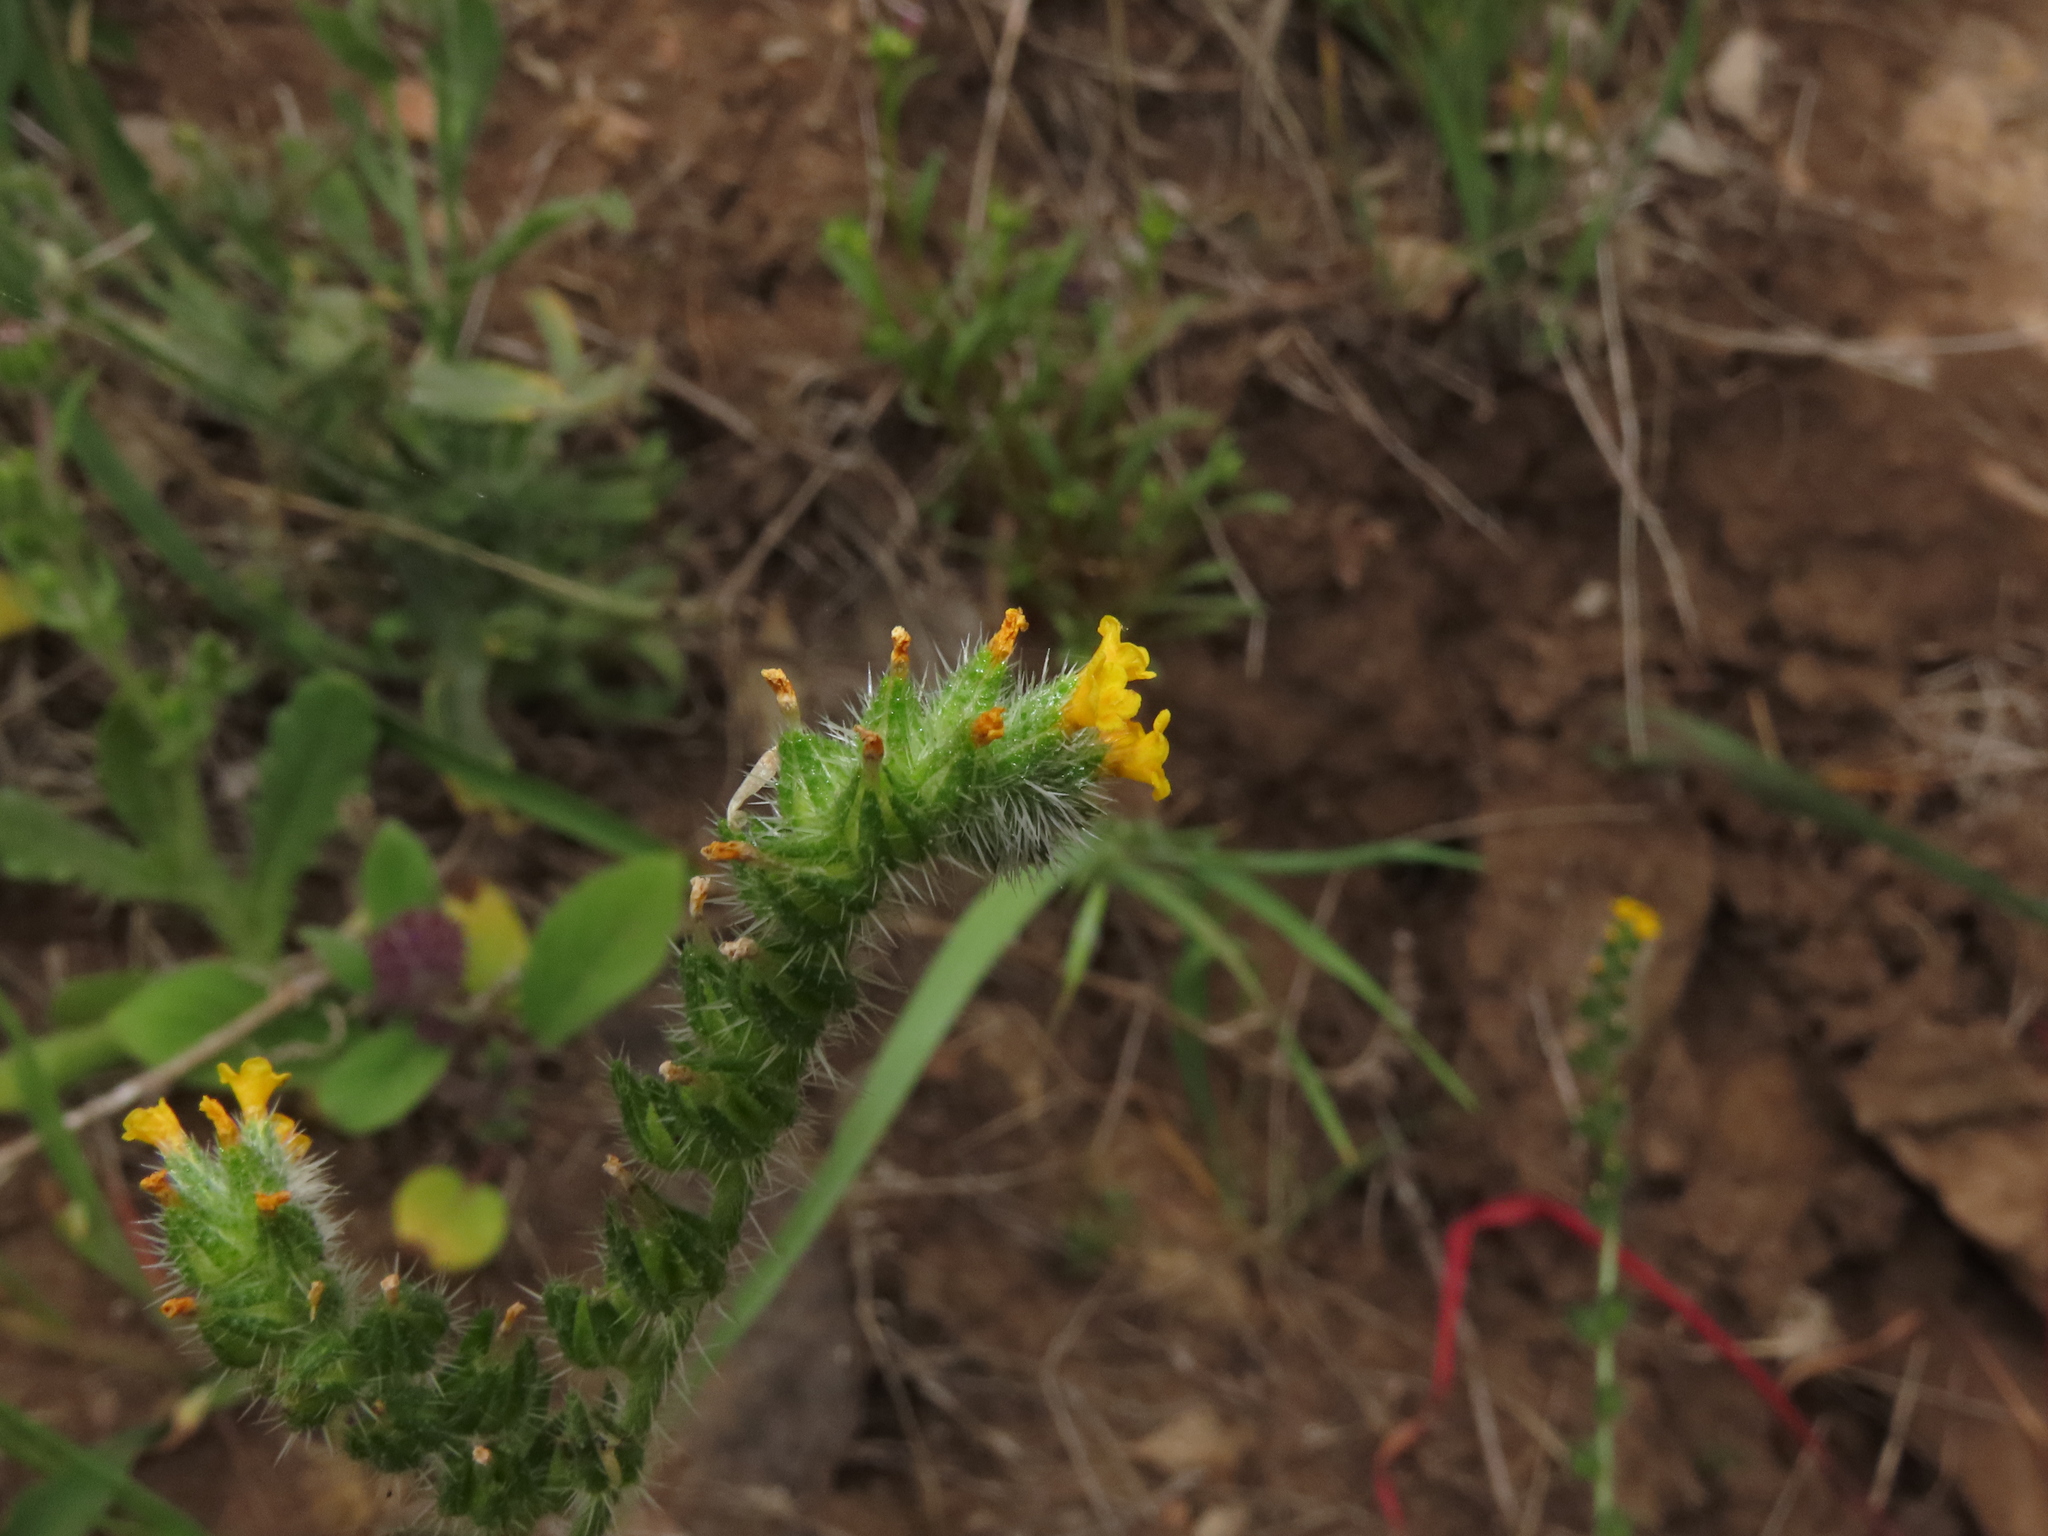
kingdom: Plantae
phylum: Tracheophyta
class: Magnoliopsida
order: Boraginales
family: Boraginaceae
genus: Amsinckia
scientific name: Amsinckia calycina
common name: Hairy fiddleneck
